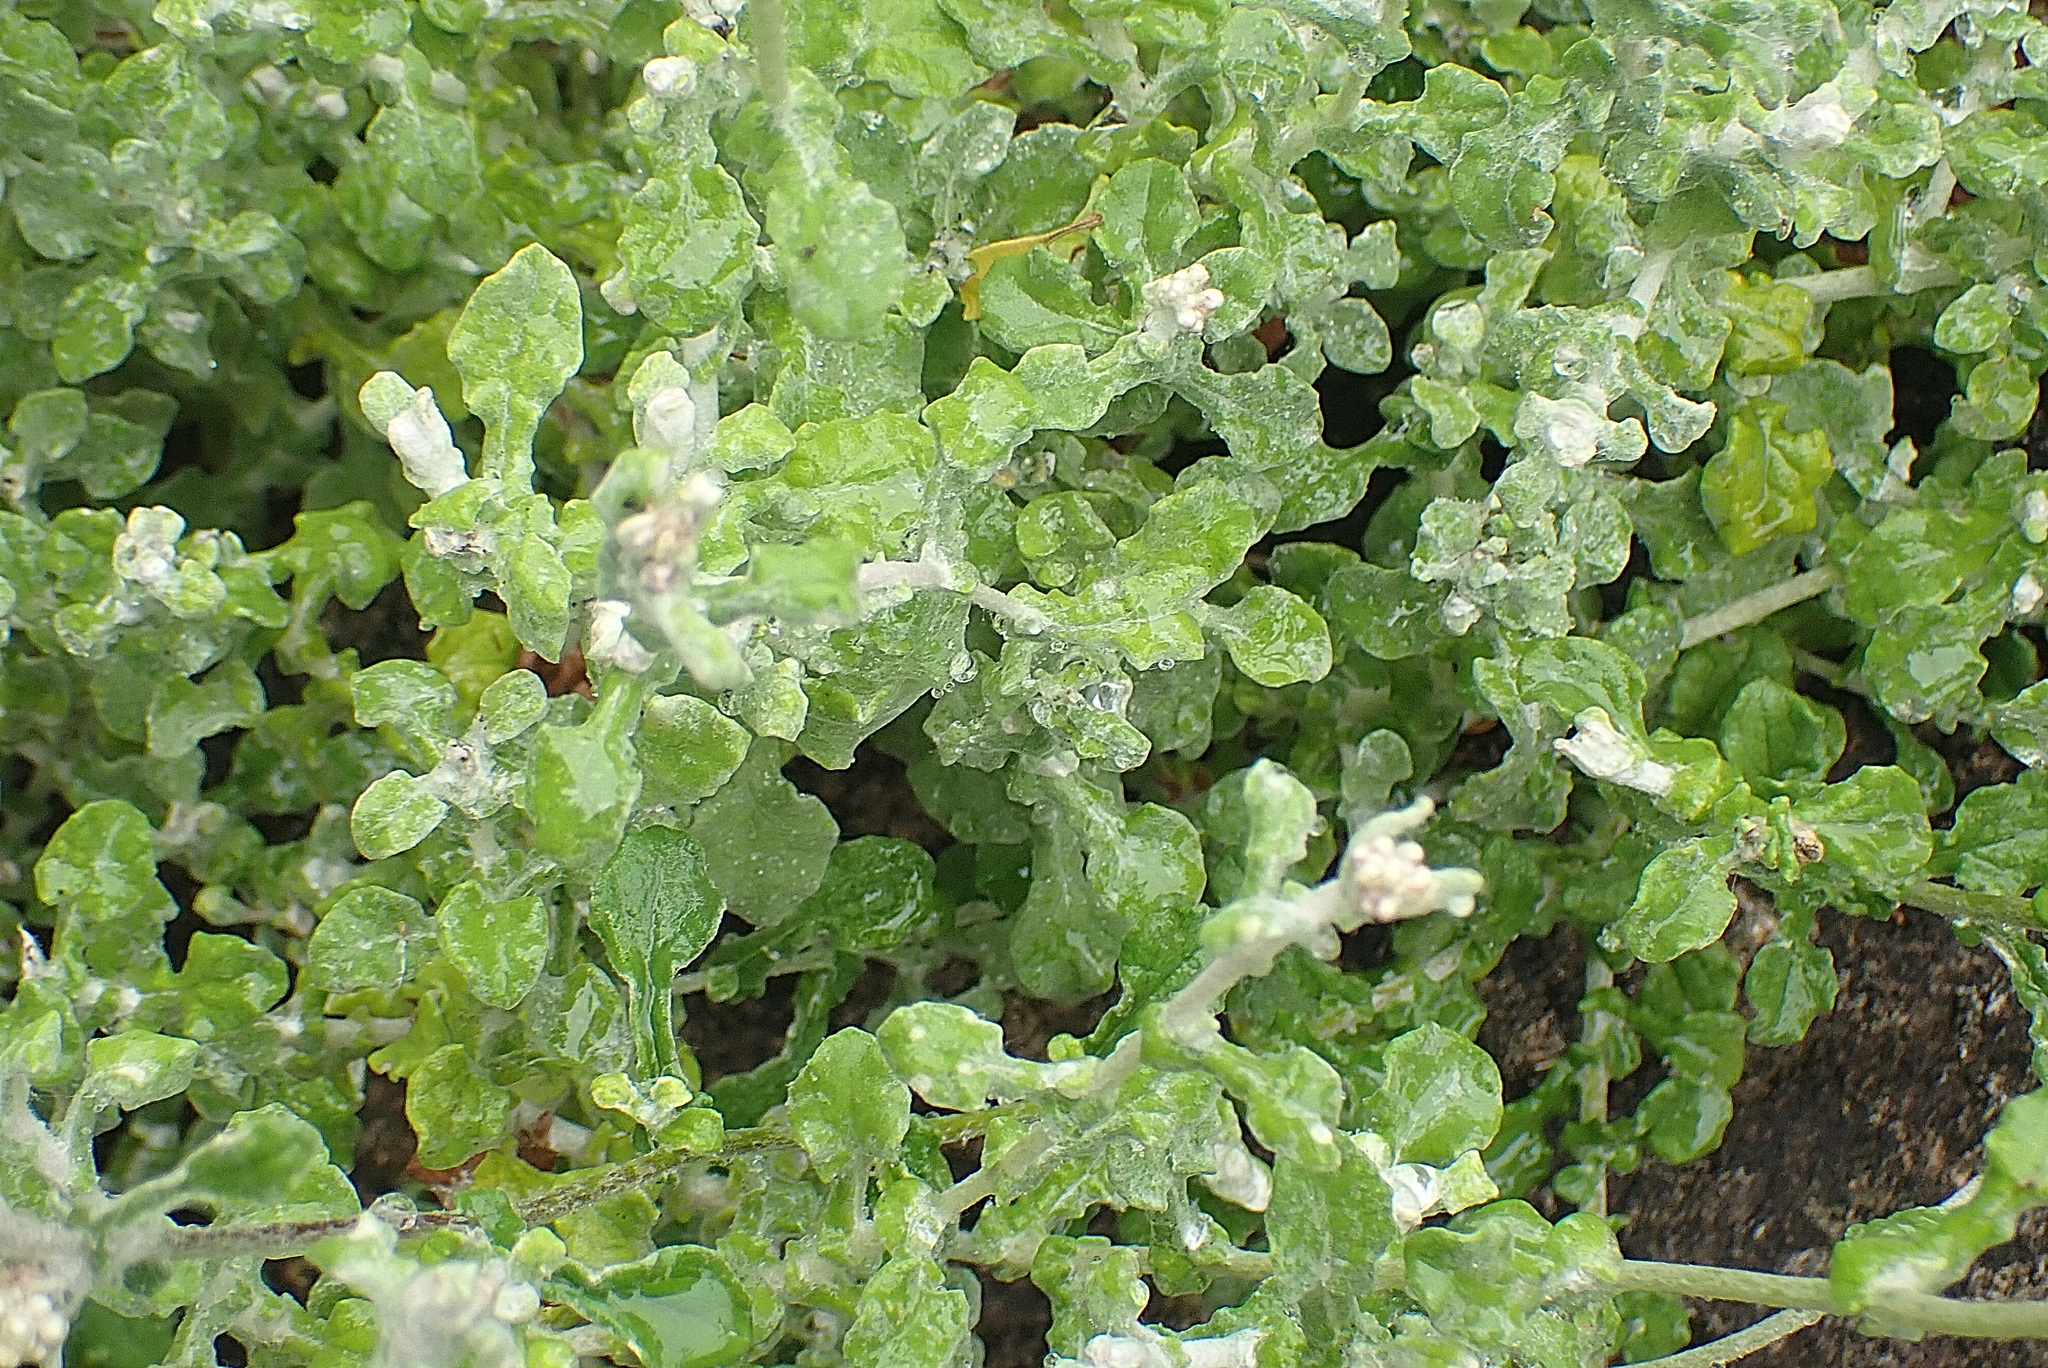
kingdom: Plantae
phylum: Tracheophyta
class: Magnoliopsida
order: Asterales
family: Asteraceae
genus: Helichrysum
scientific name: Helichrysum patulum
